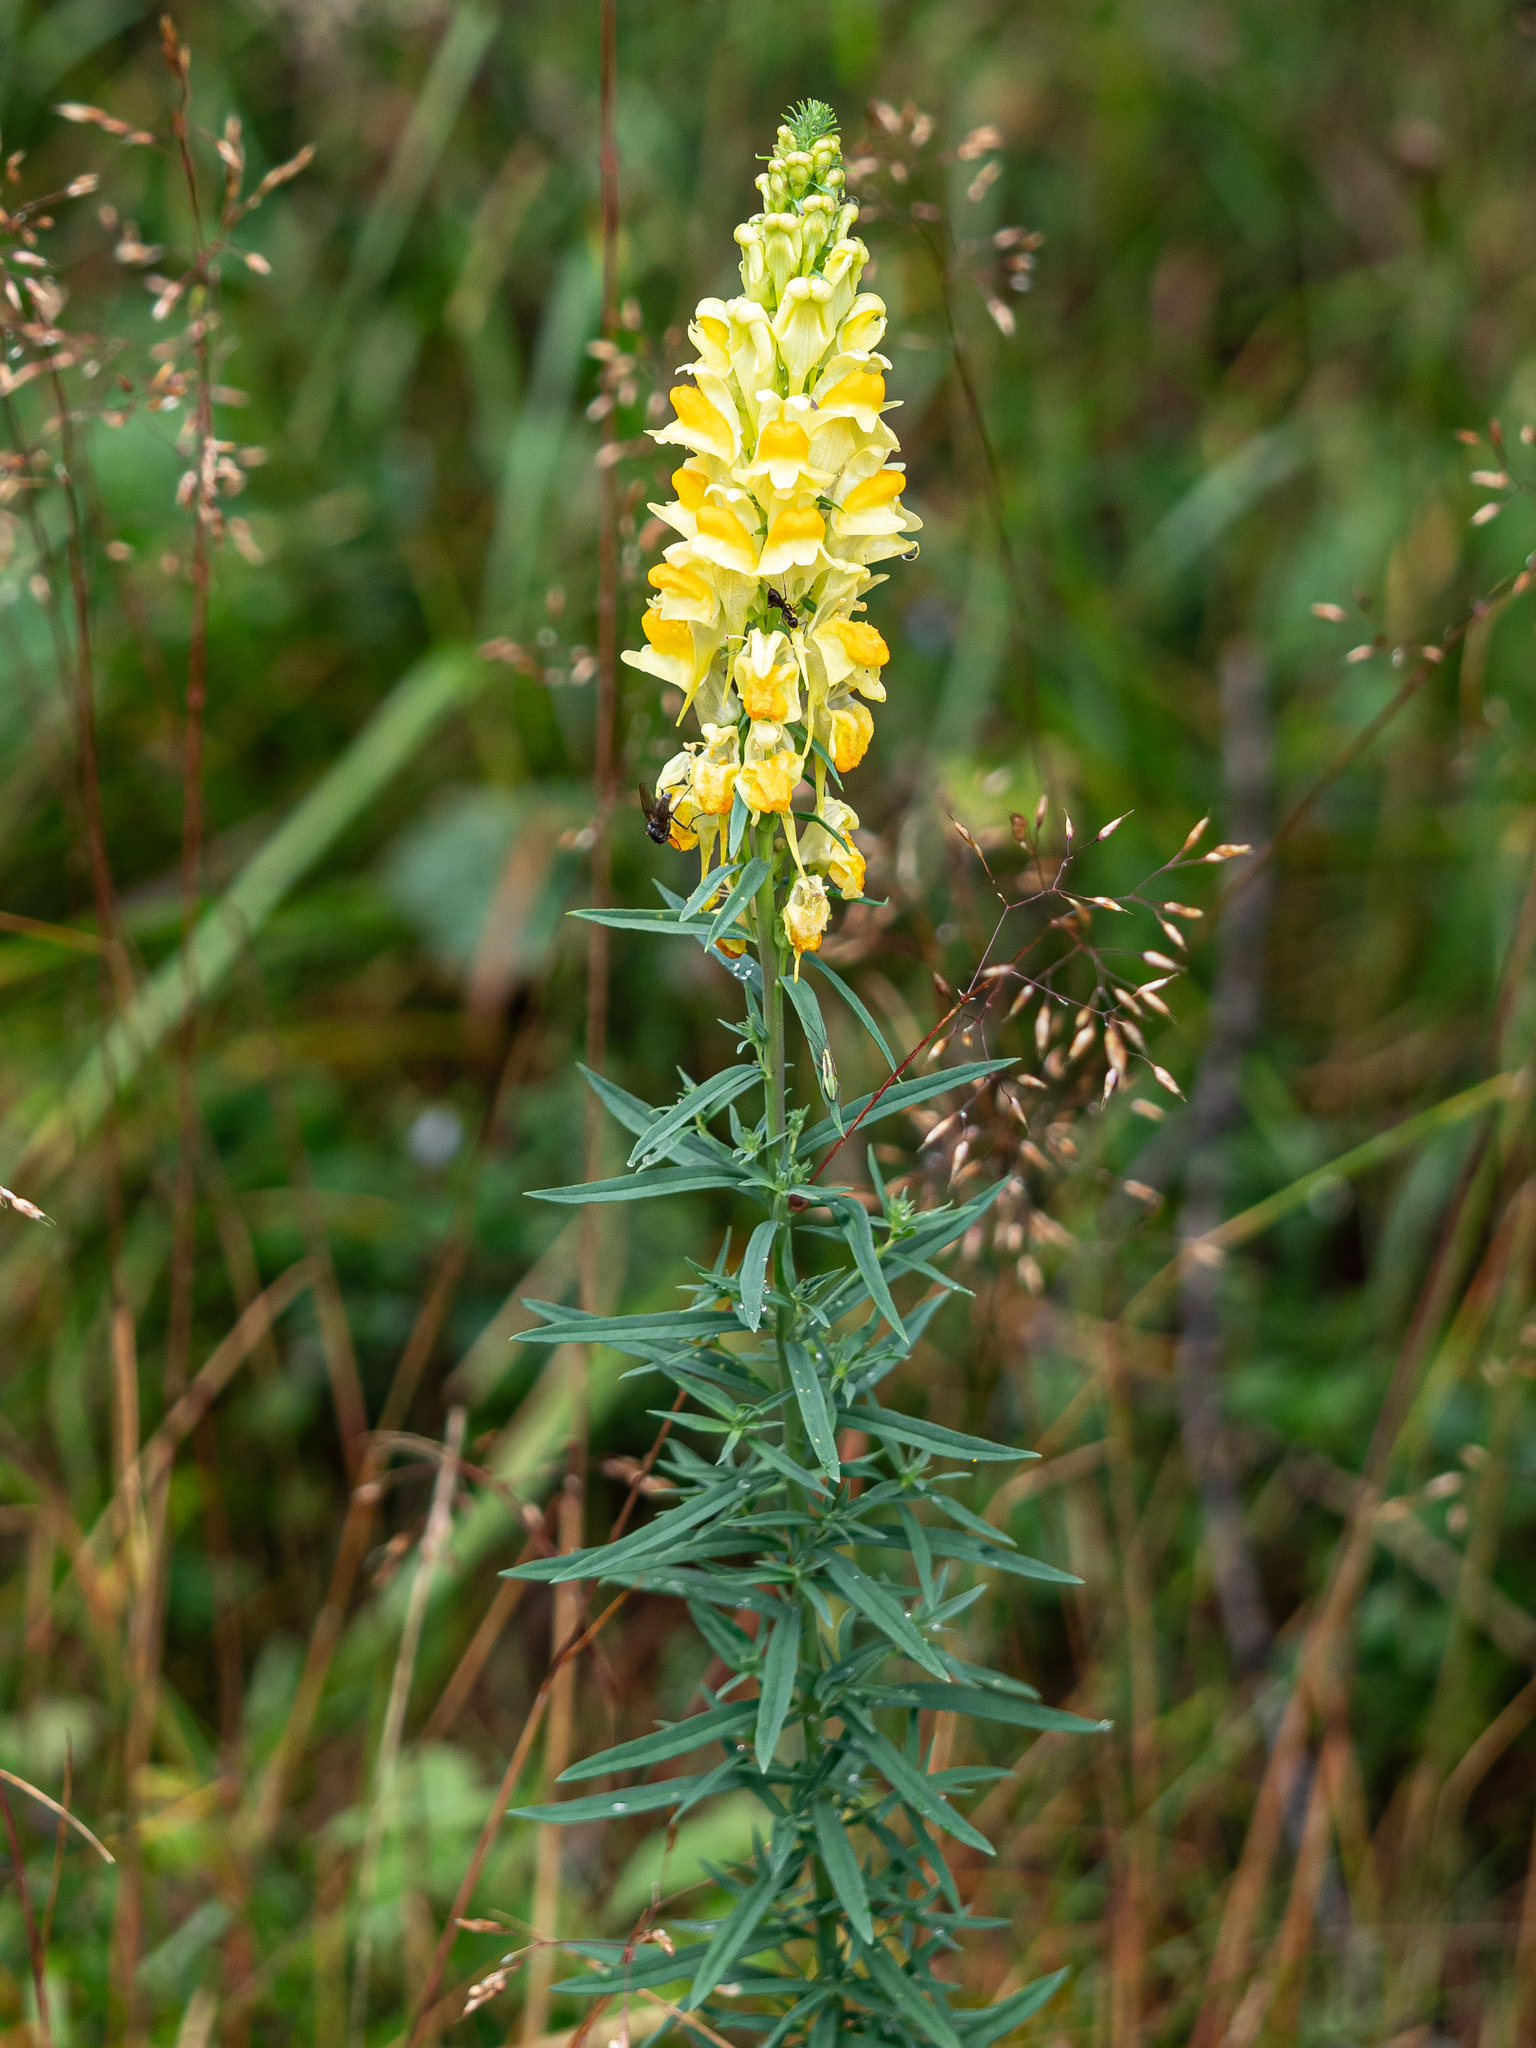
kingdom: Plantae
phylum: Tracheophyta
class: Magnoliopsida
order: Lamiales
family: Plantaginaceae
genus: Linaria
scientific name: Linaria vulgaris
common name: Butter and eggs
